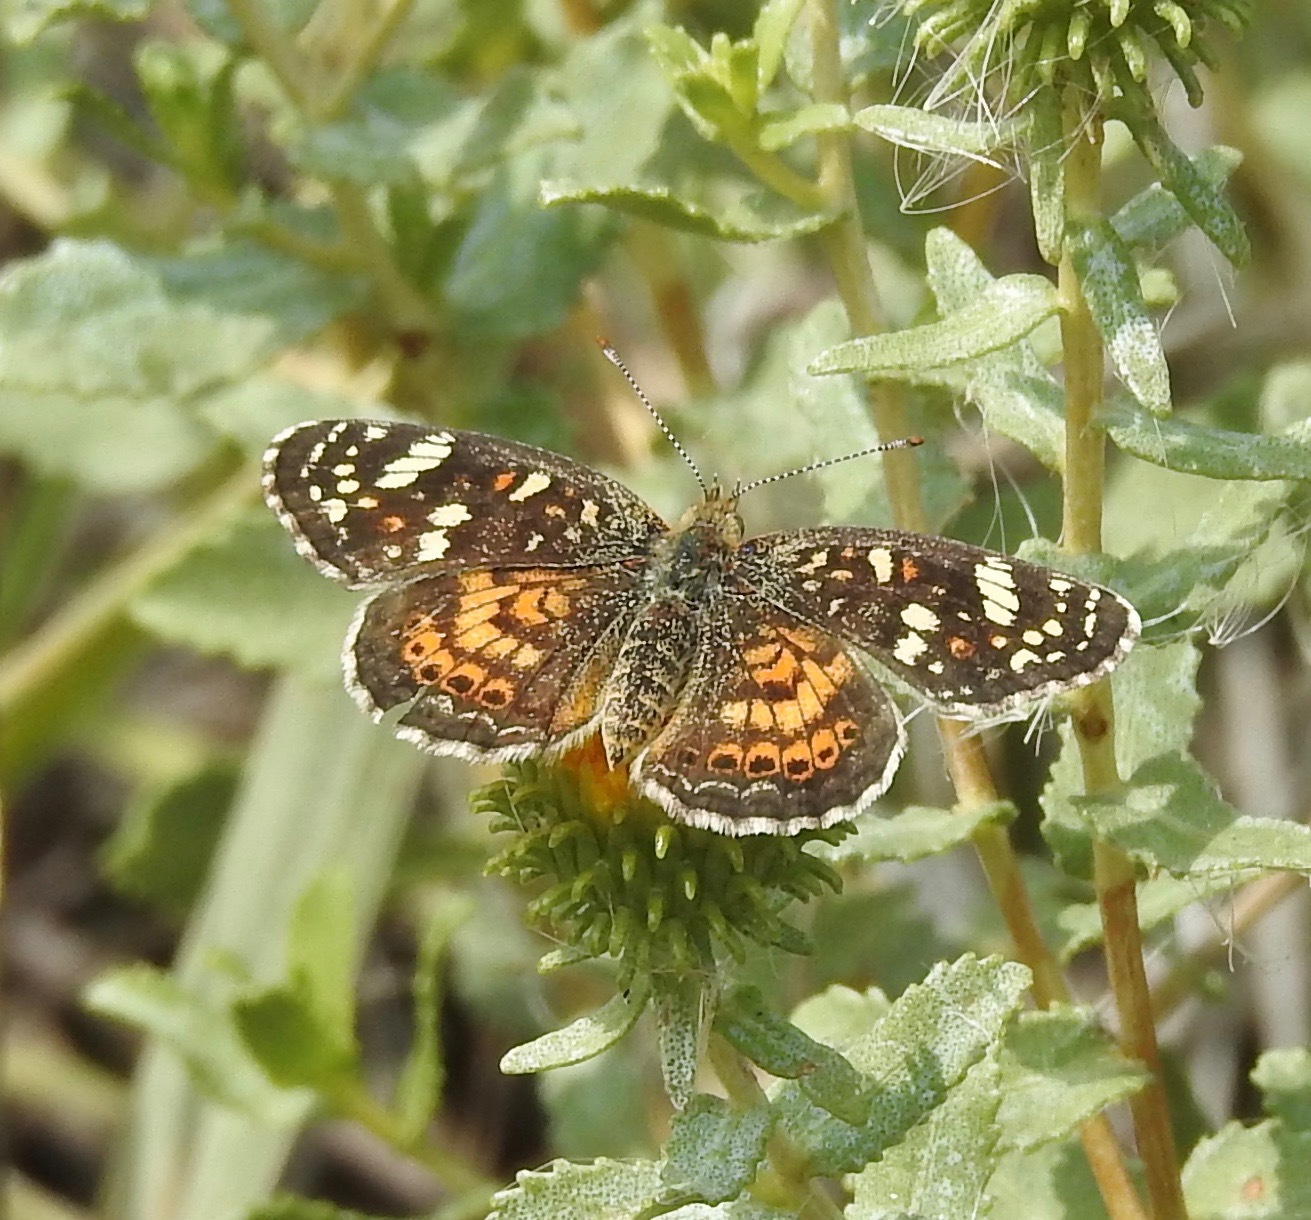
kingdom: Animalia
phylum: Arthropoda
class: Insecta
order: Lepidoptera
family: Nymphalidae
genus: Phyciodes
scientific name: Phyciodes picta
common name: Painted crescent
